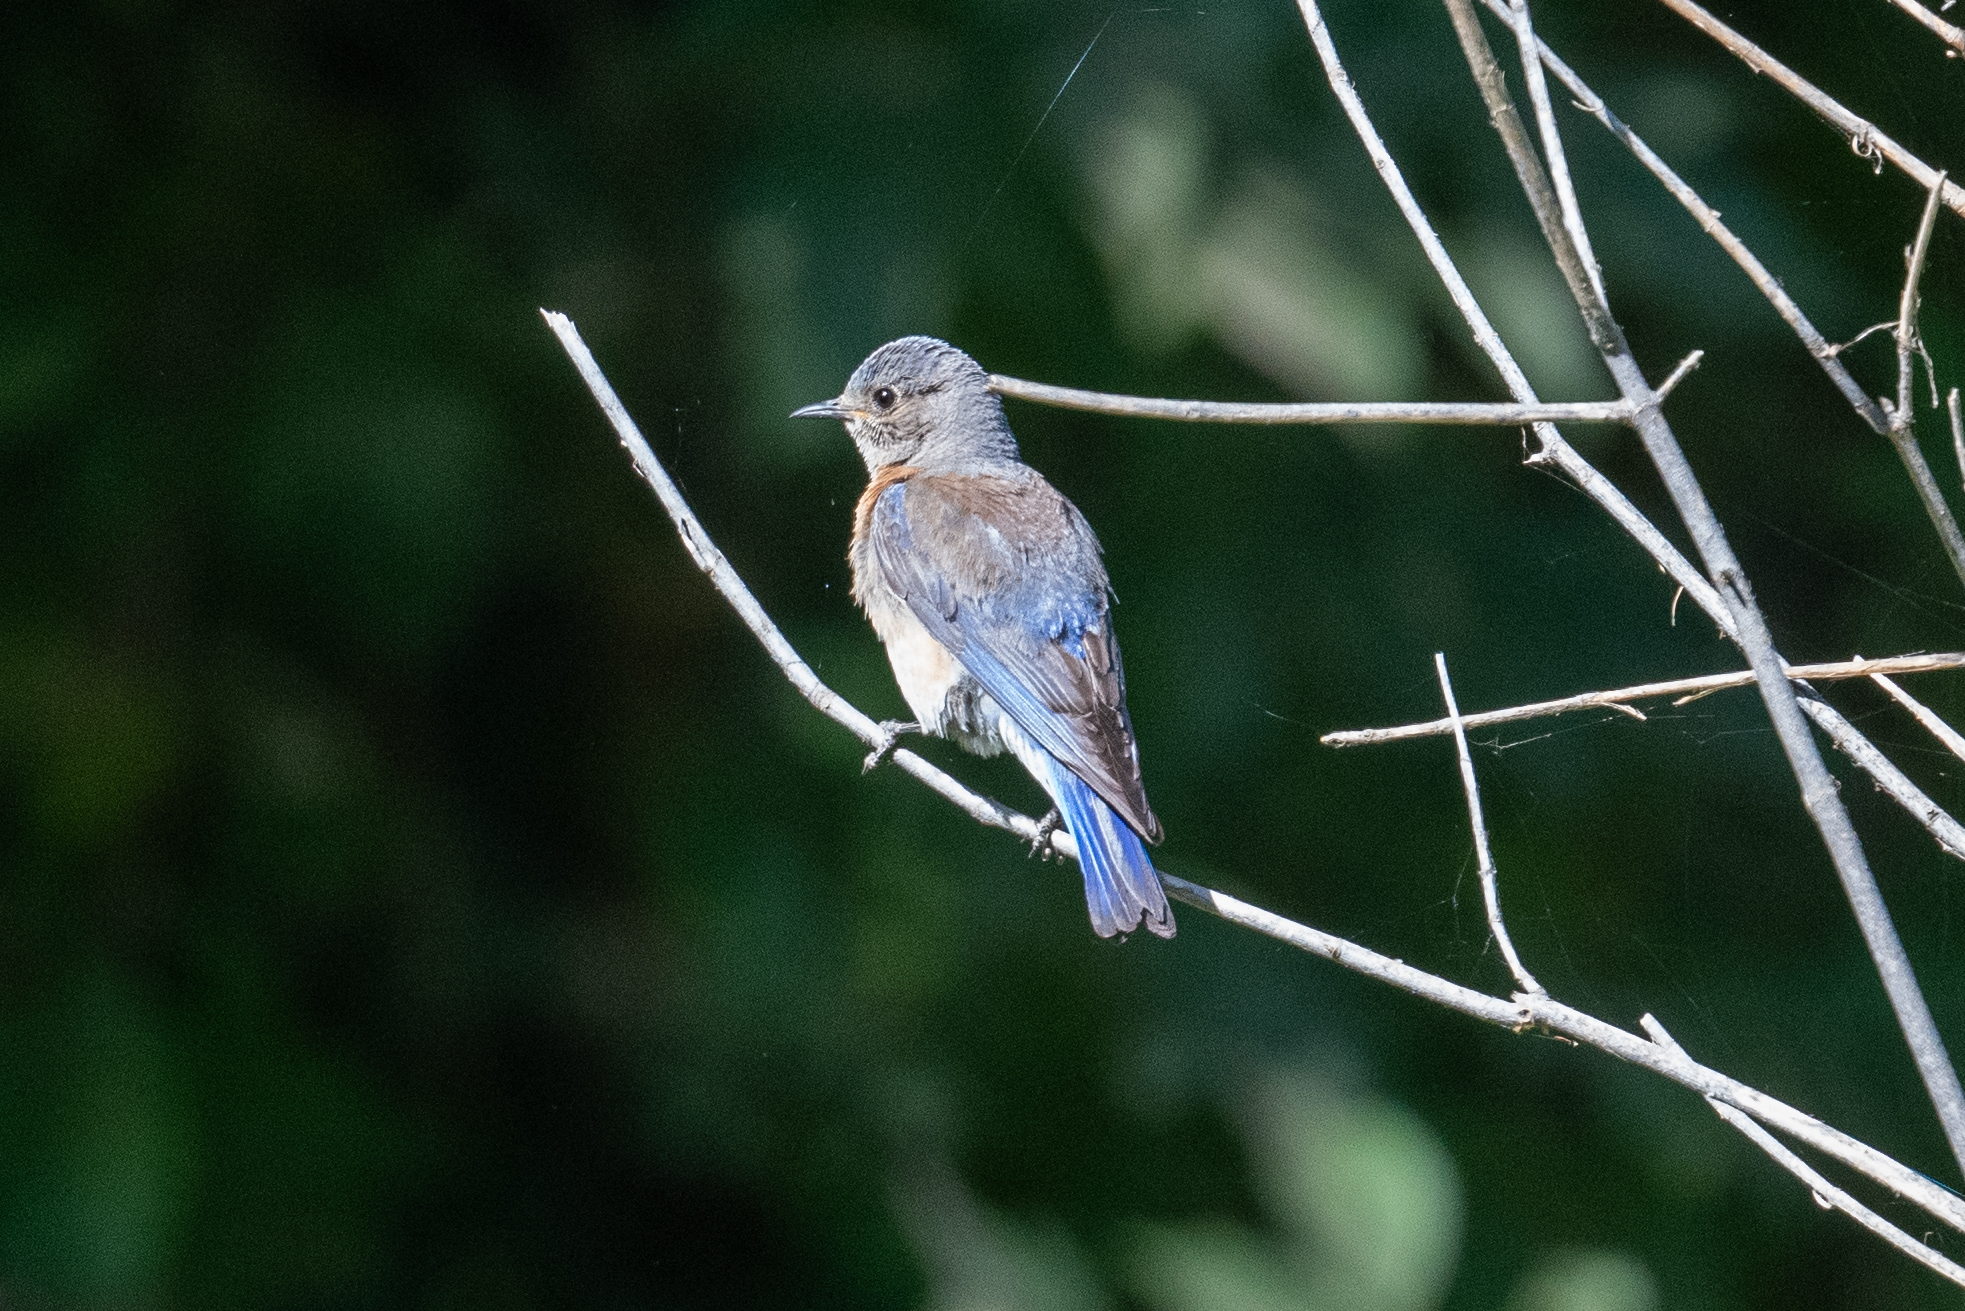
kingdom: Animalia
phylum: Chordata
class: Aves
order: Passeriformes
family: Turdidae
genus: Sialia
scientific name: Sialia mexicana
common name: Western bluebird
